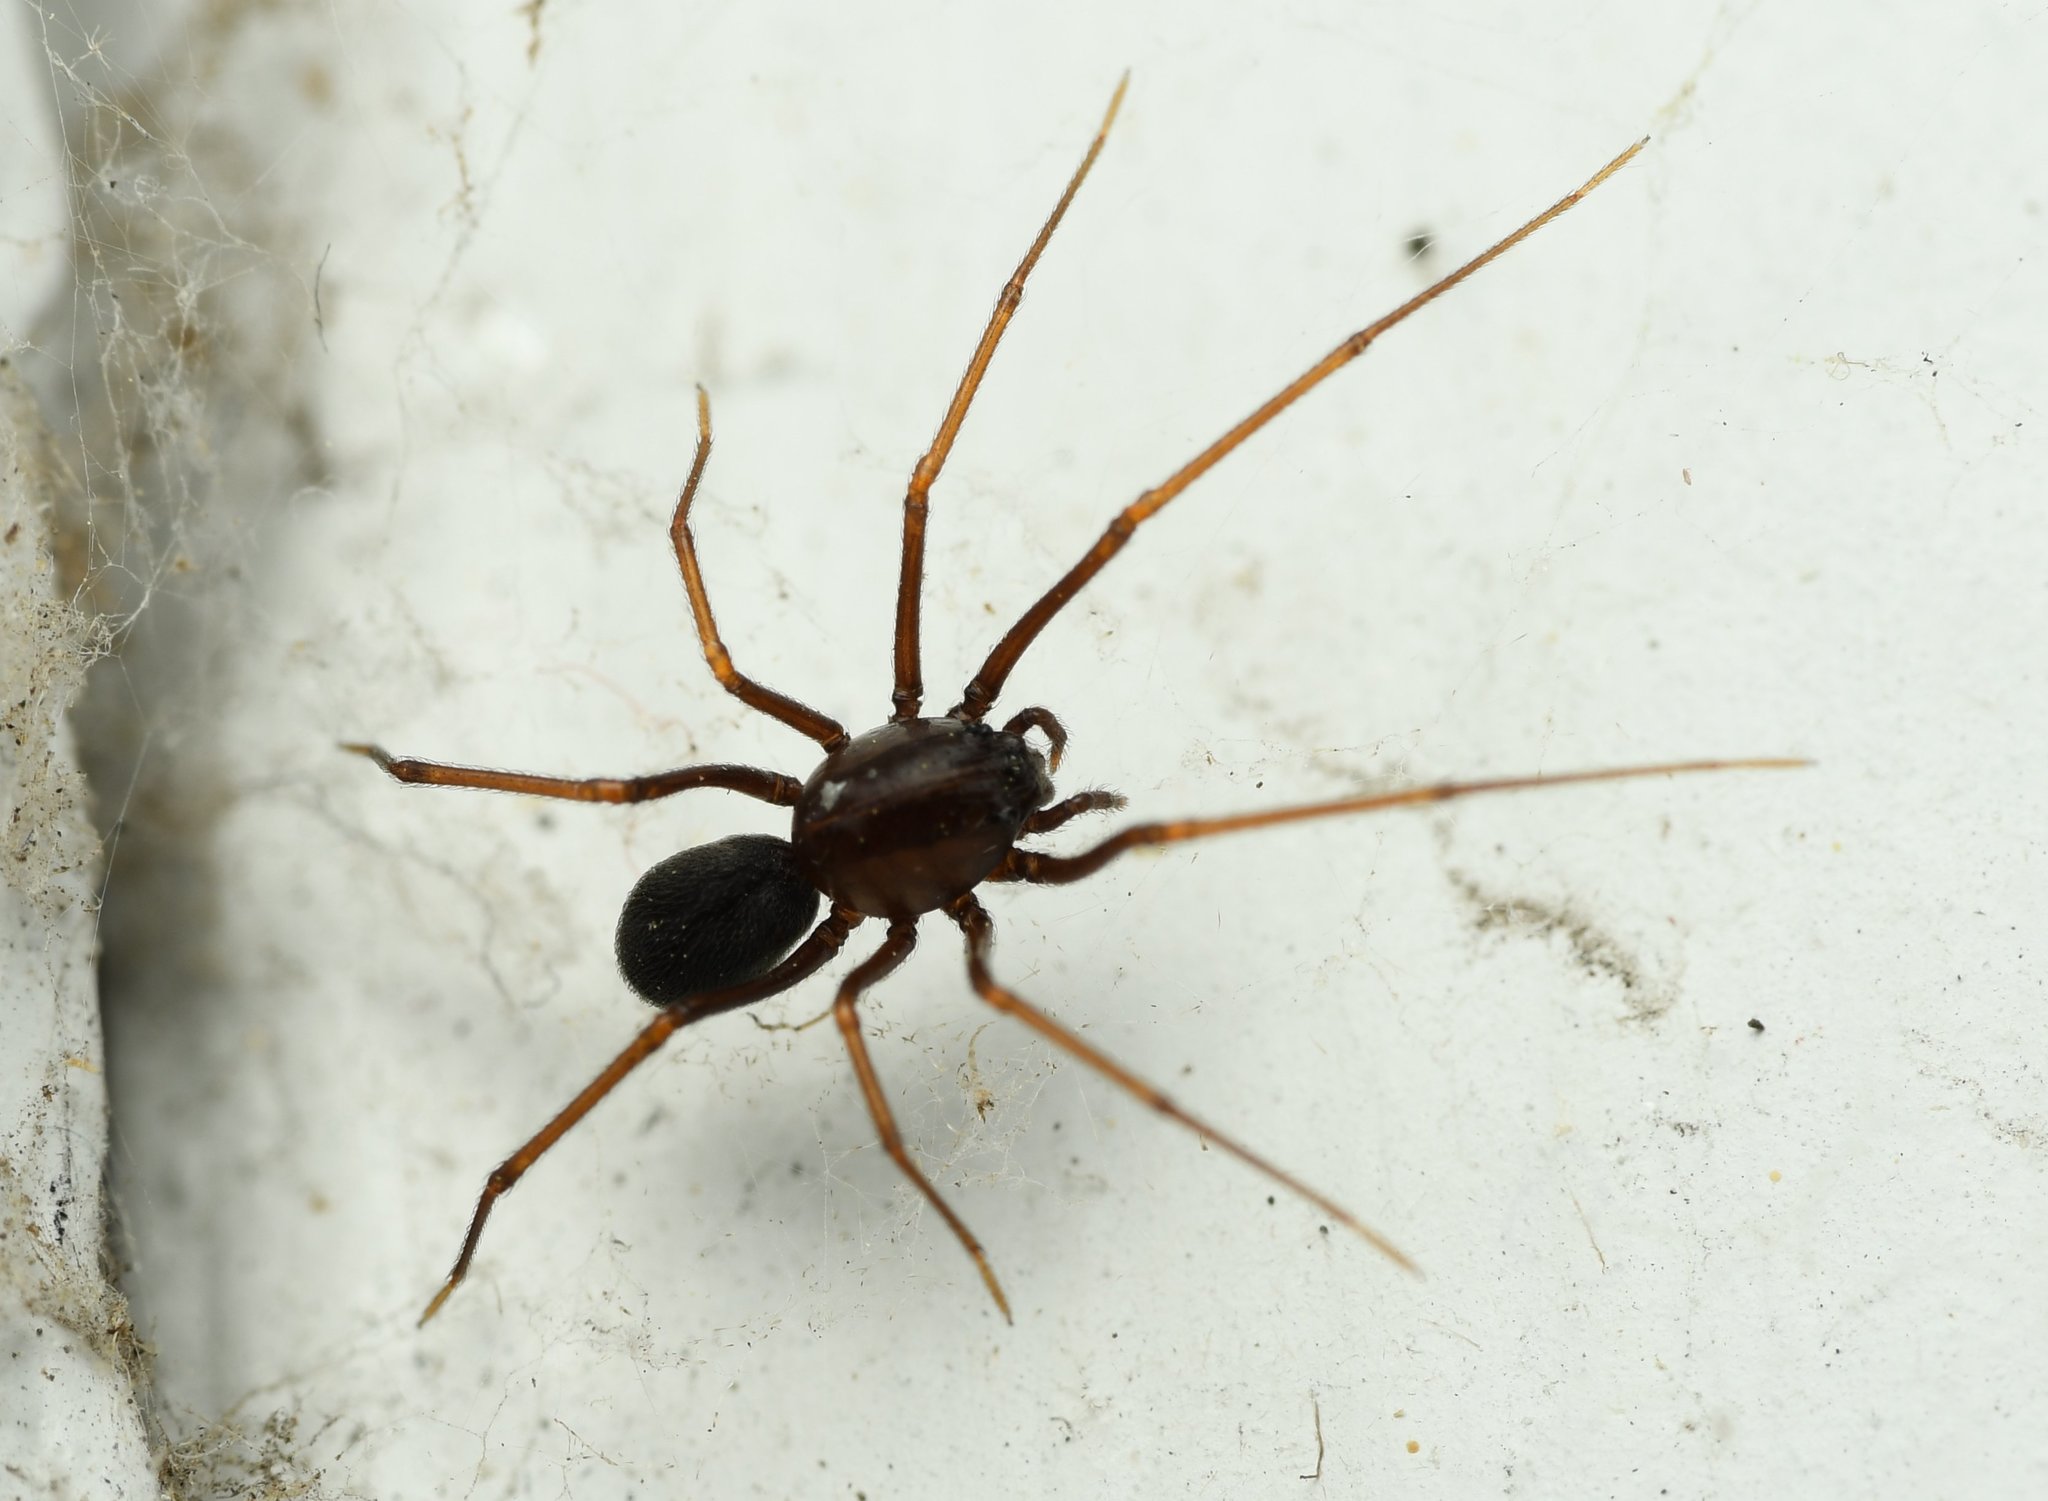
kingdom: Animalia
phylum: Arthropoda
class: Arachnida
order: Araneae
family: Scytodidae
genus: Scytodes
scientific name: Scytodes fusca
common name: Spitting spiders
